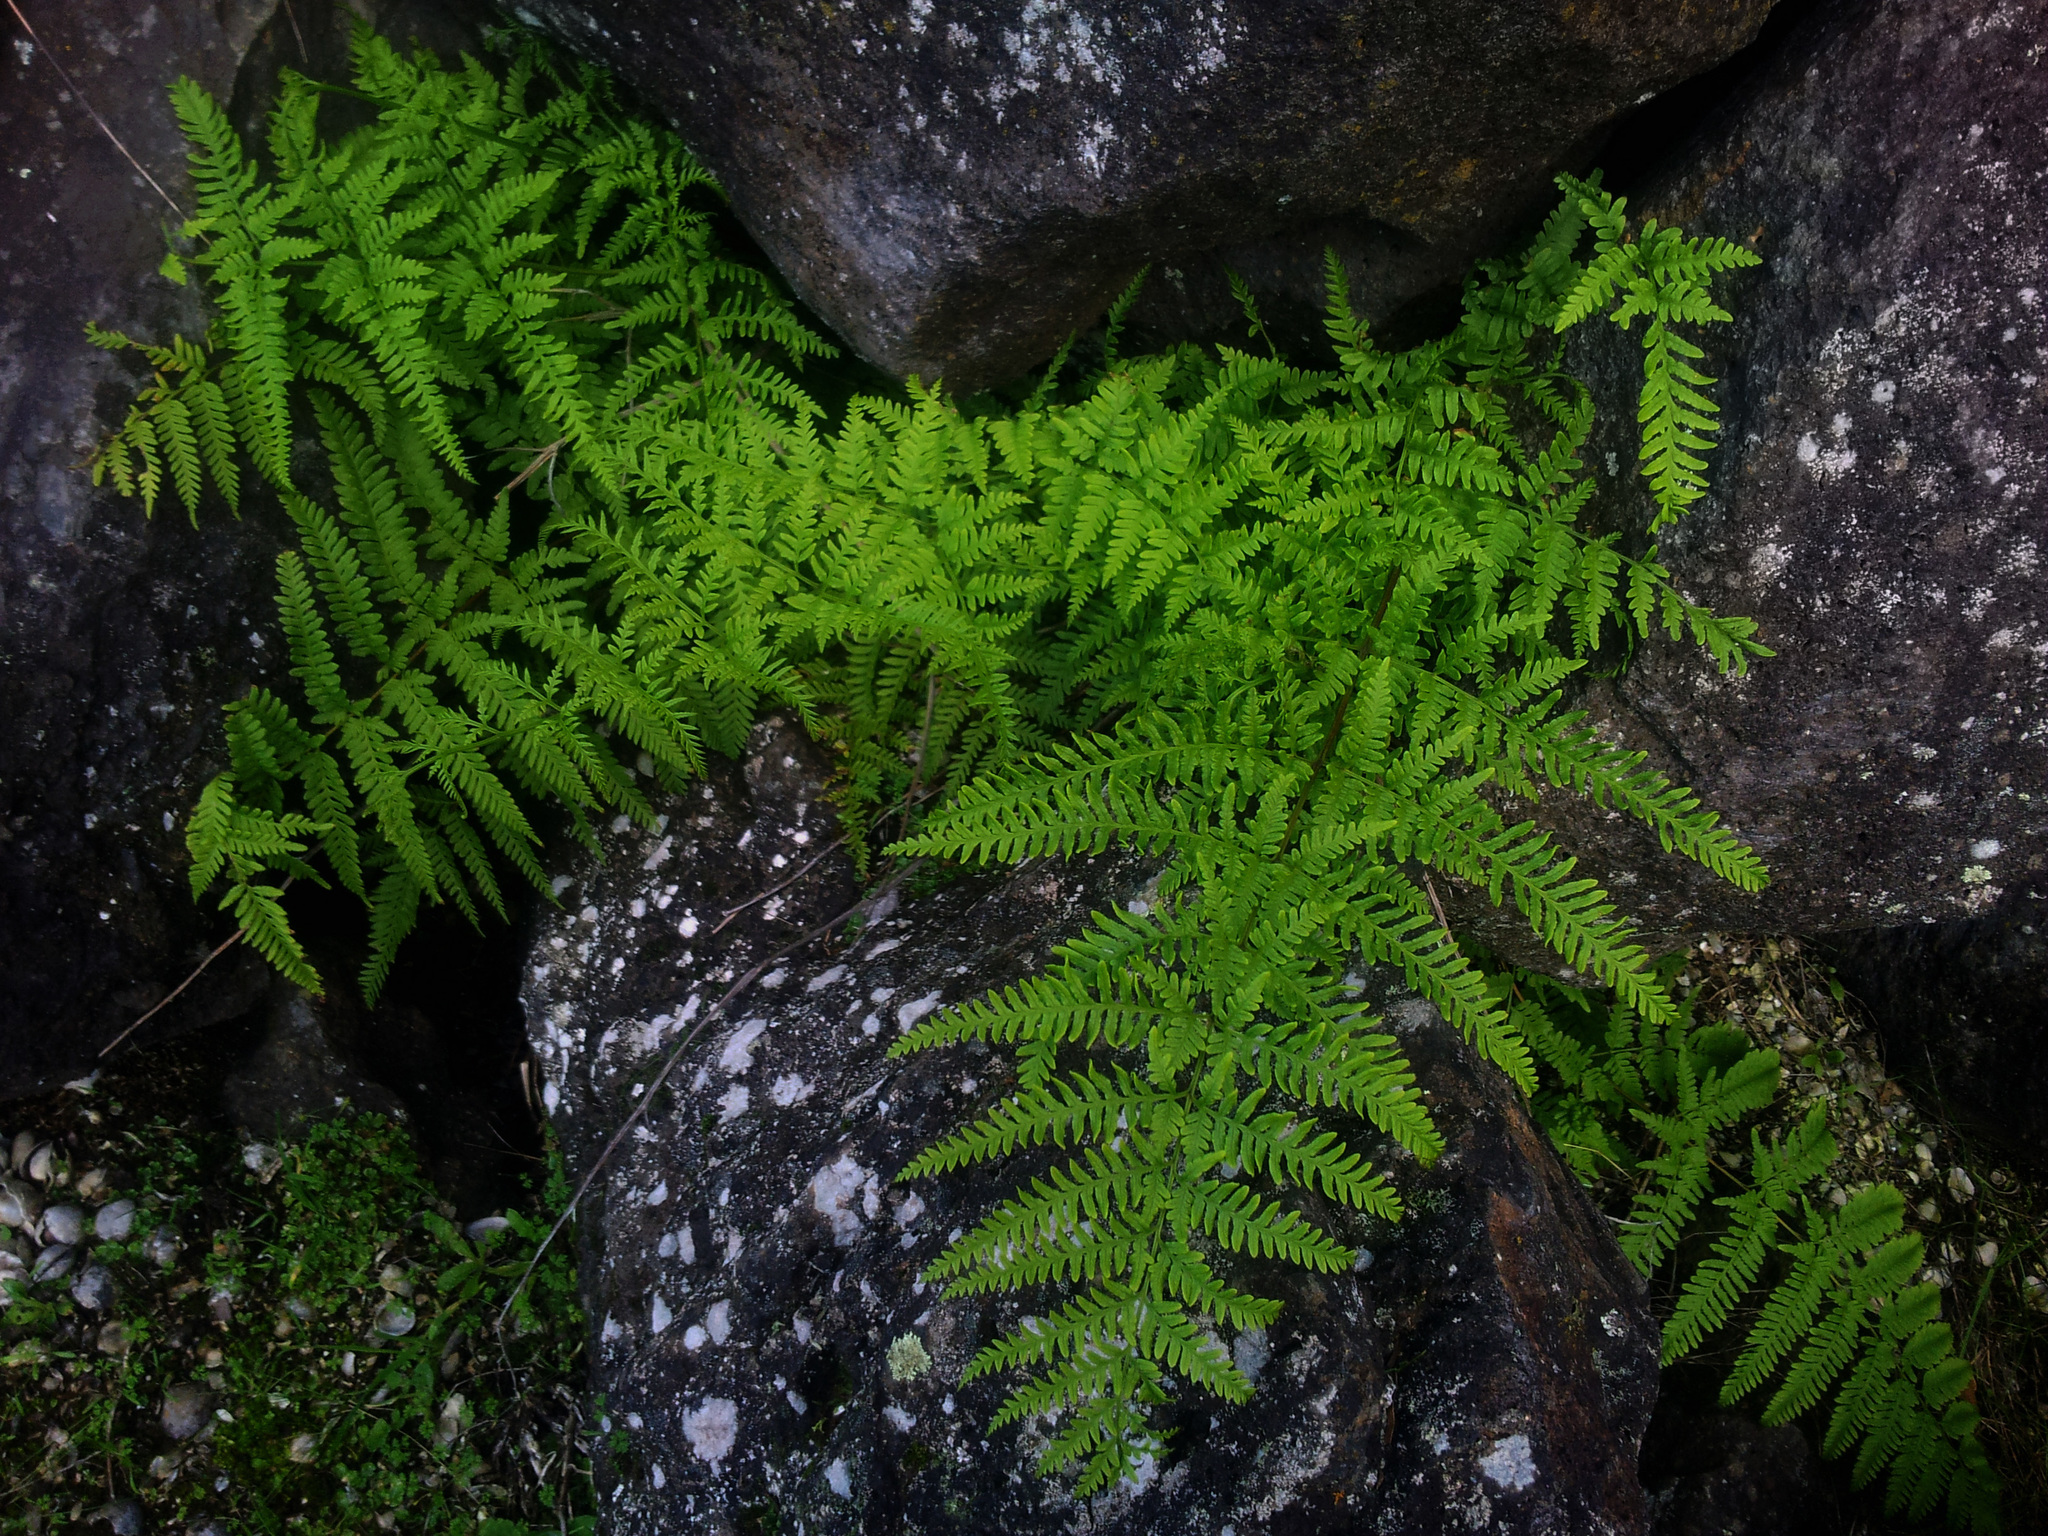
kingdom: Plantae
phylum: Tracheophyta
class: Polypodiopsida
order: Polypodiales
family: Pteridaceae
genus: Pteris
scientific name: Pteris tremula
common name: Australian brake
